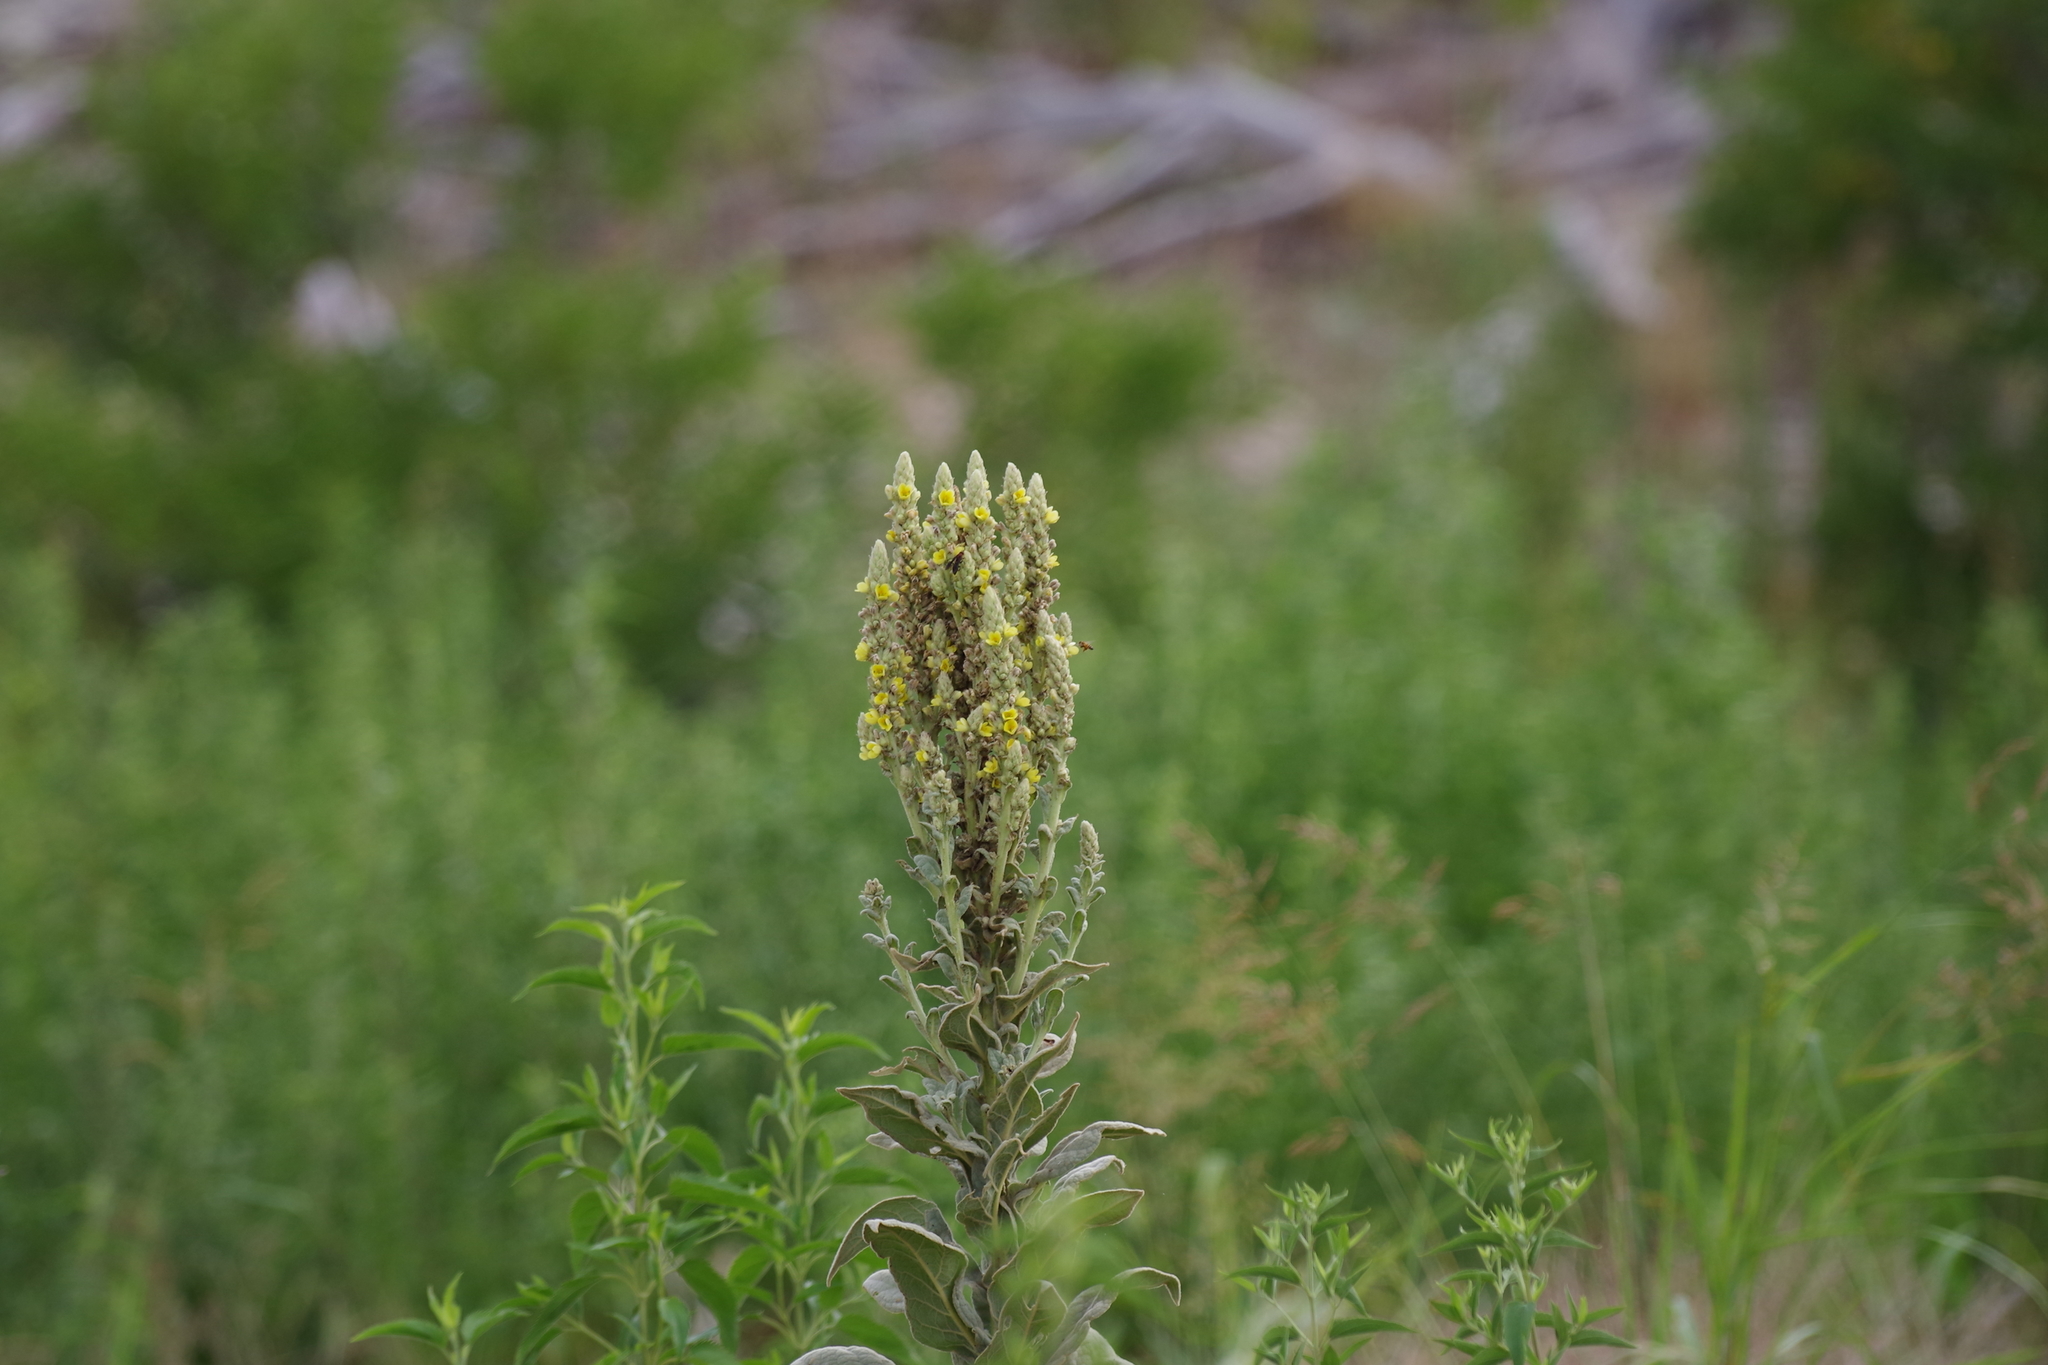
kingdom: Plantae
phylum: Tracheophyta
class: Magnoliopsida
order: Lamiales
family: Scrophulariaceae
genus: Verbascum
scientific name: Verbascum thapsus
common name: Common mullein
